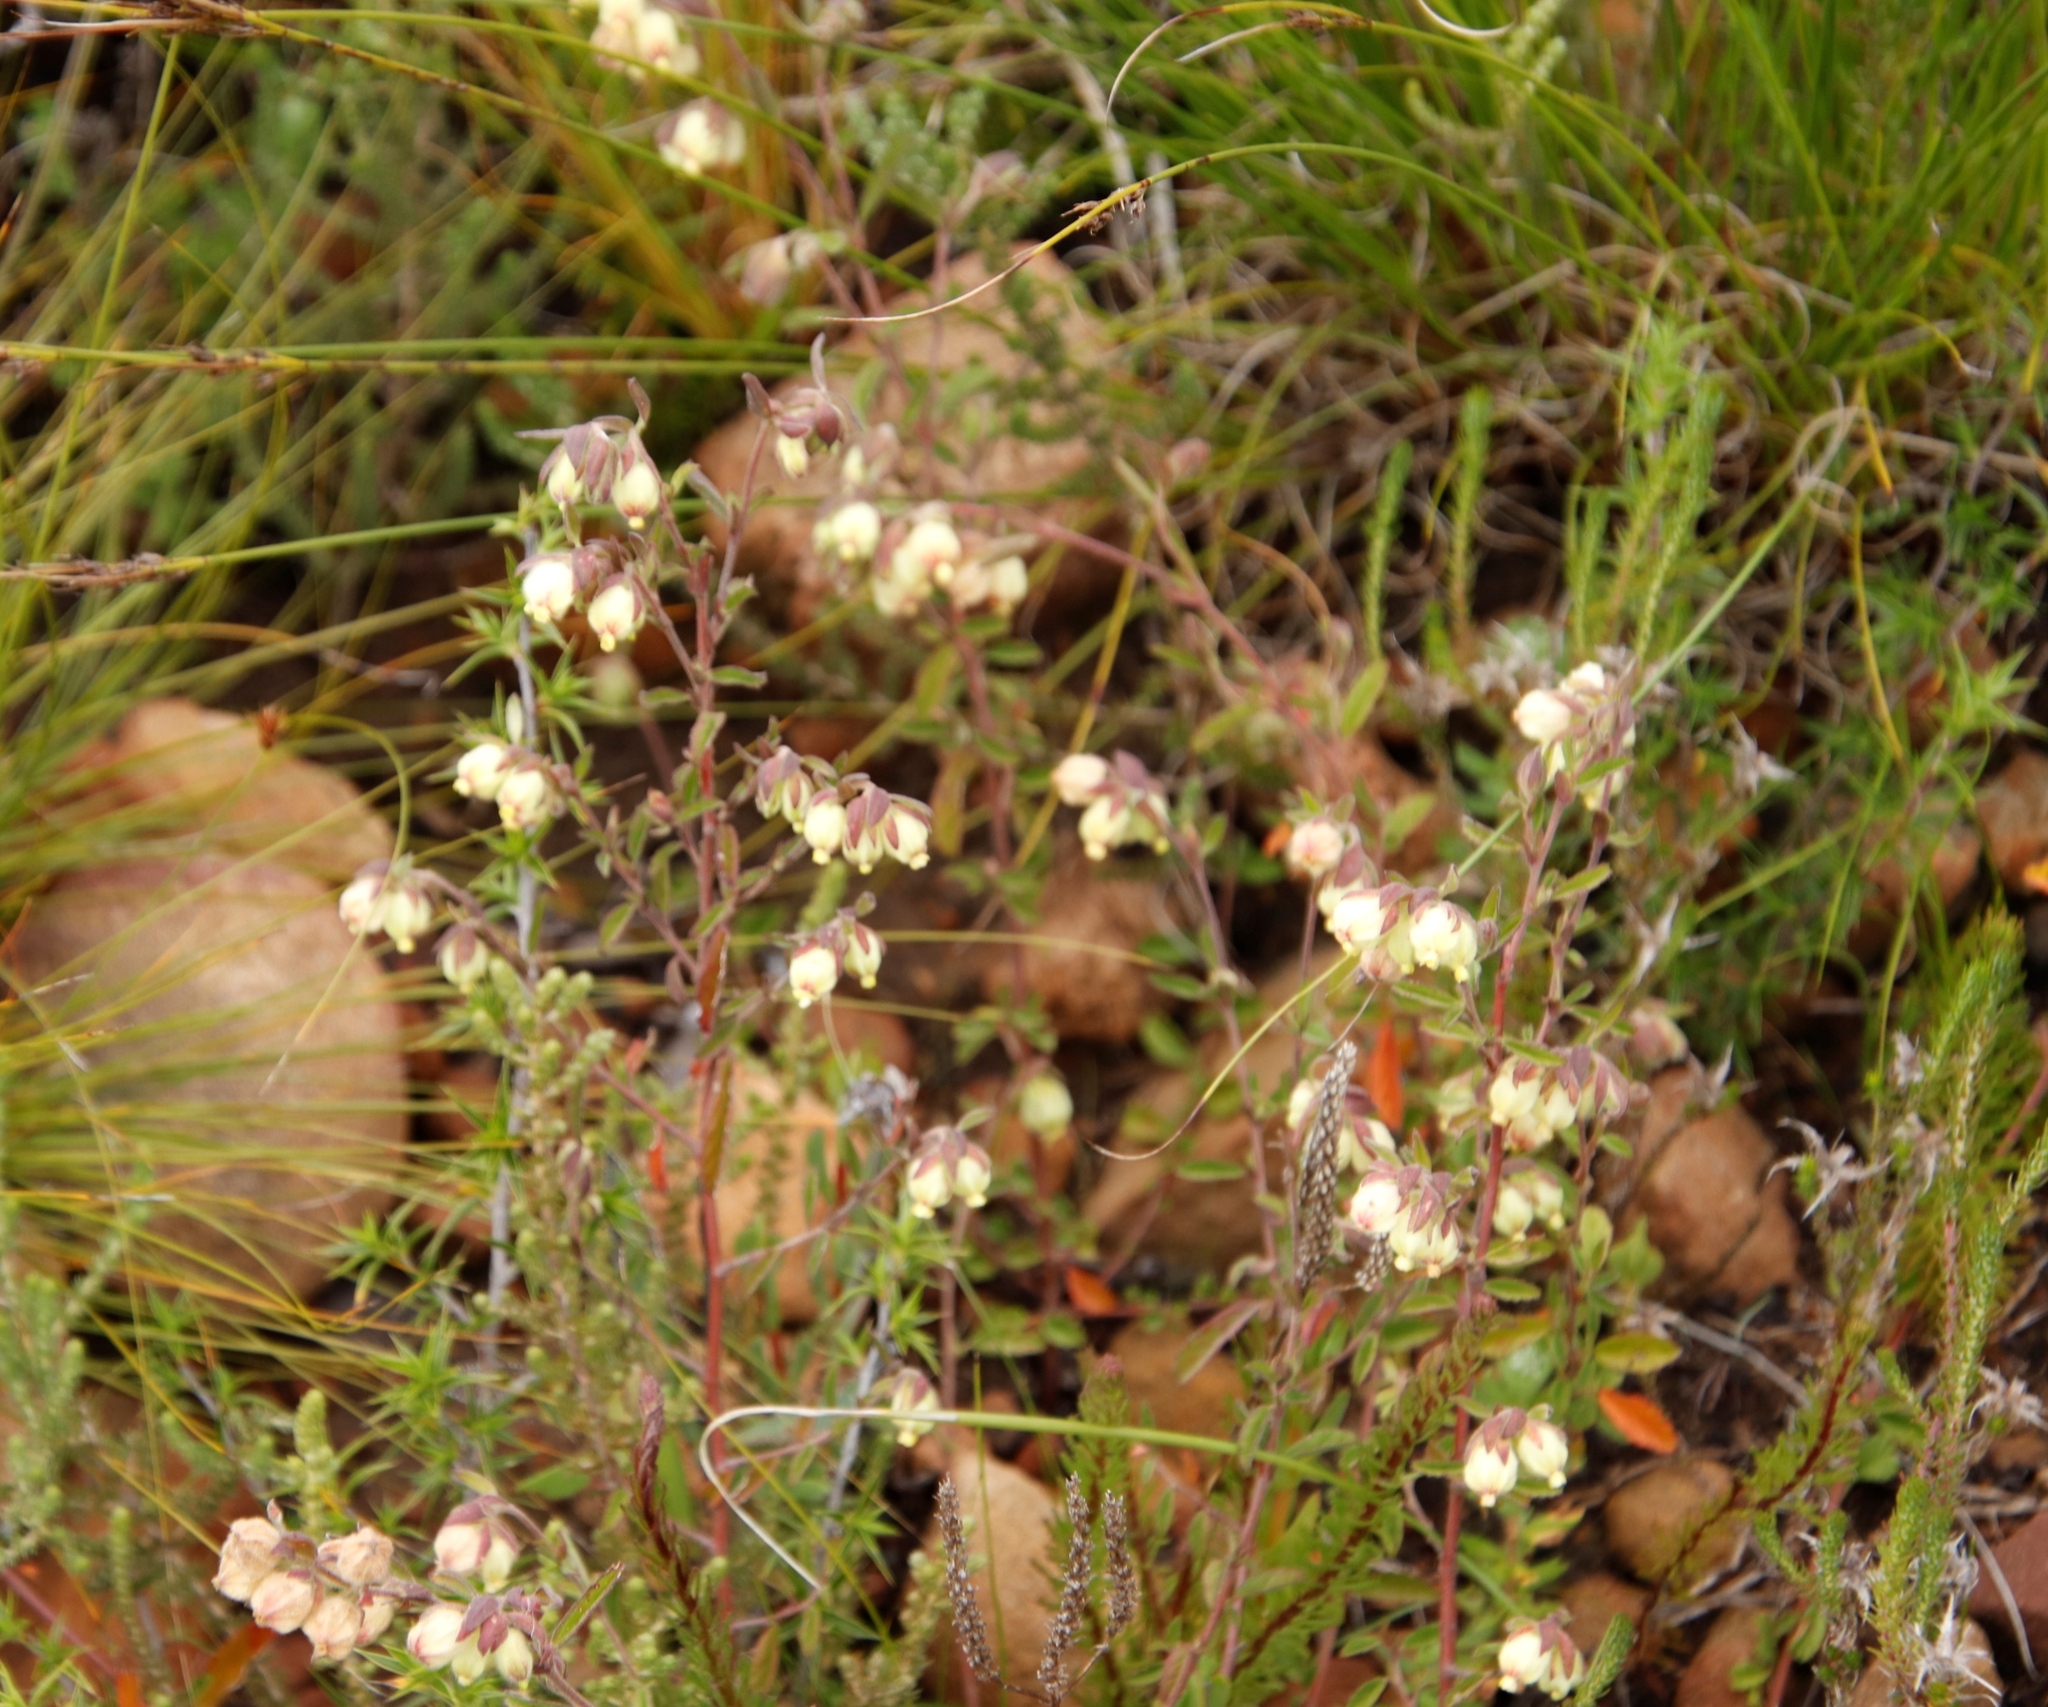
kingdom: Plantae
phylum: Tracheophyta
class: Magnoliopsida
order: Malvales
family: Malvaceae
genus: Hermannia
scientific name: Hermannia hyssopifolia
